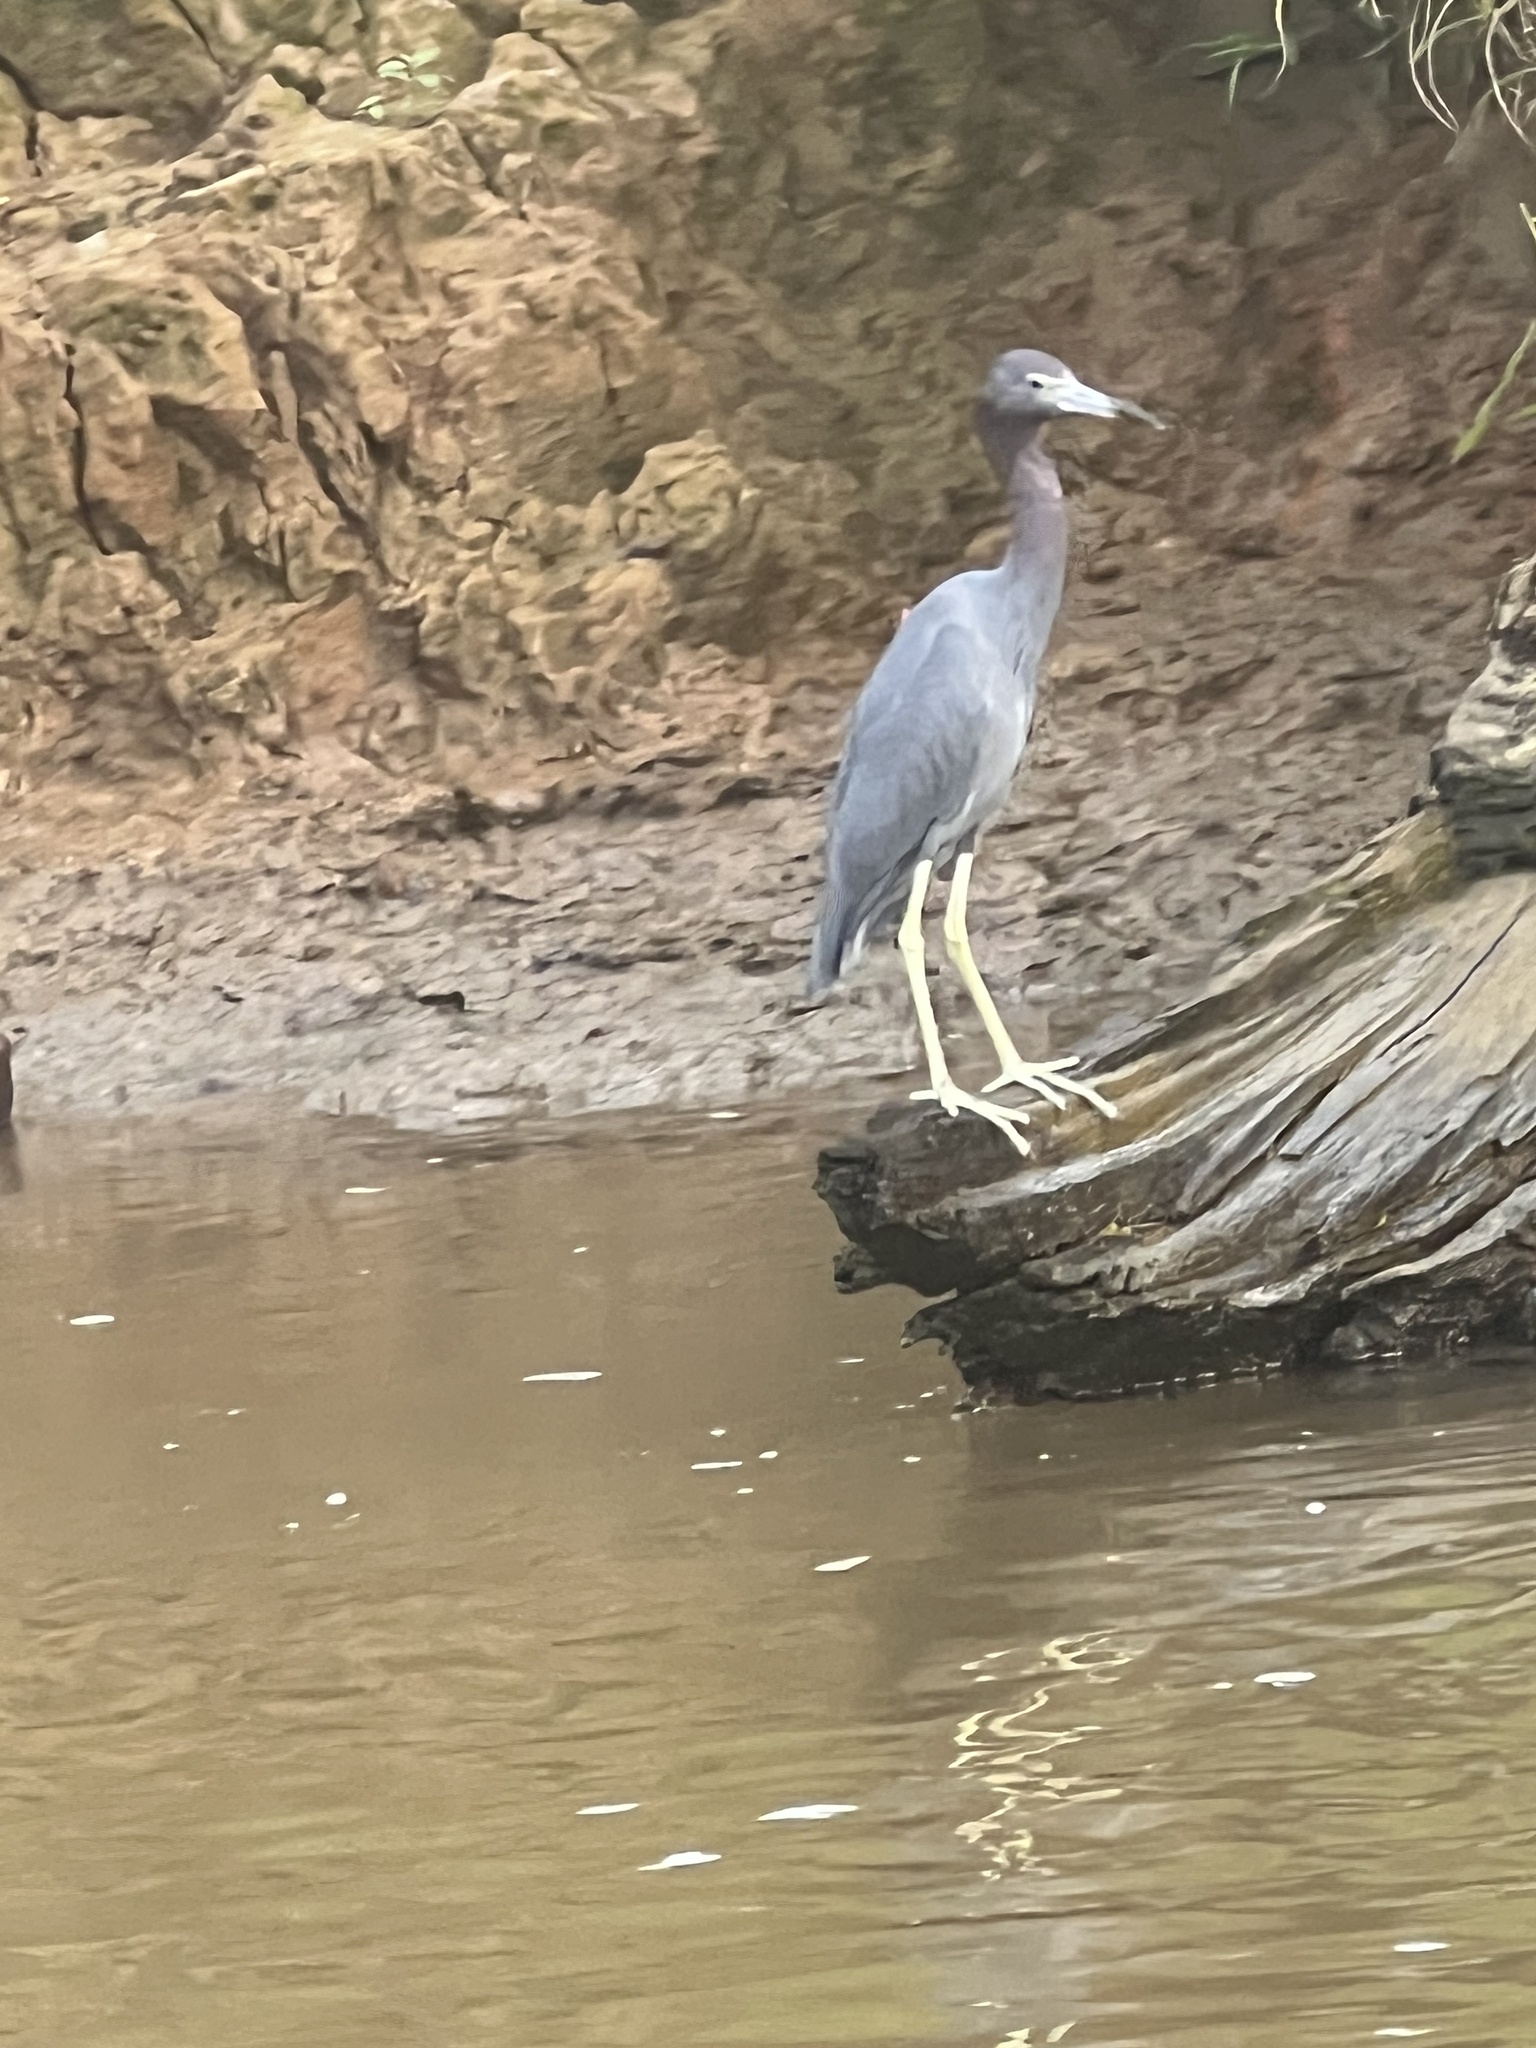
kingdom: Animalia
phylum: Chordata
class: Aves
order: Pelecaniformes
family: Ardeidae
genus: Egretta
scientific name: Egretta caerulea
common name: Little blue heron
